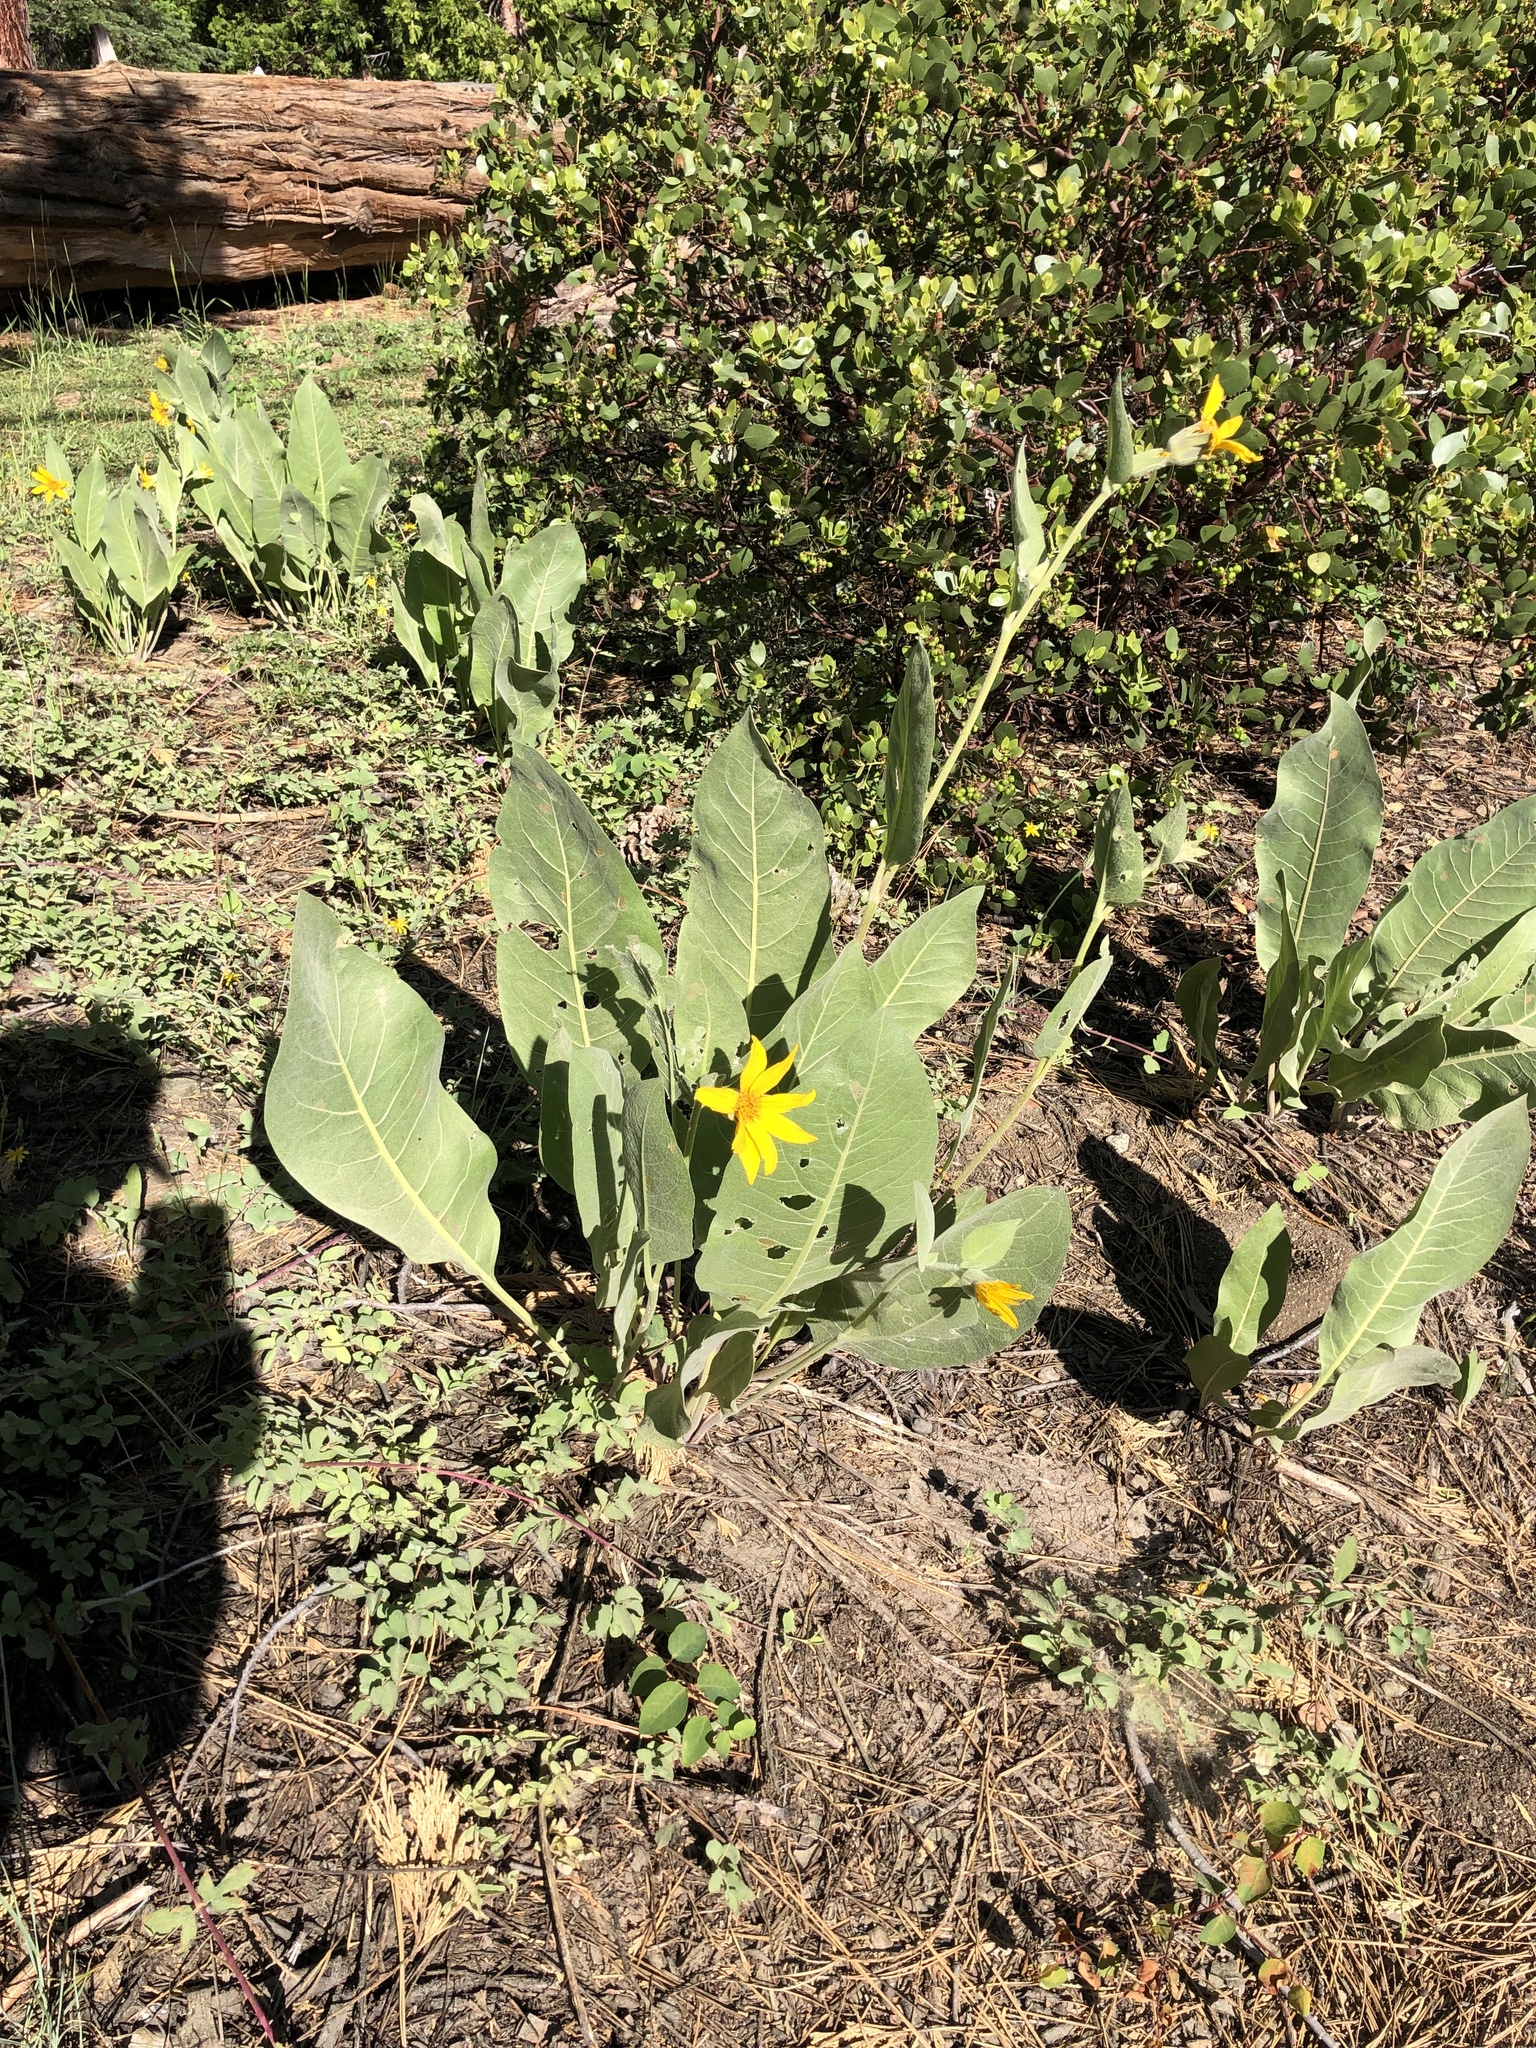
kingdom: Plantae
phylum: Tracheophyta
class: Magnoliopsida
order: Asterales
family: Asteraceae
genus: Wyethia
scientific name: Wyethia mollis
